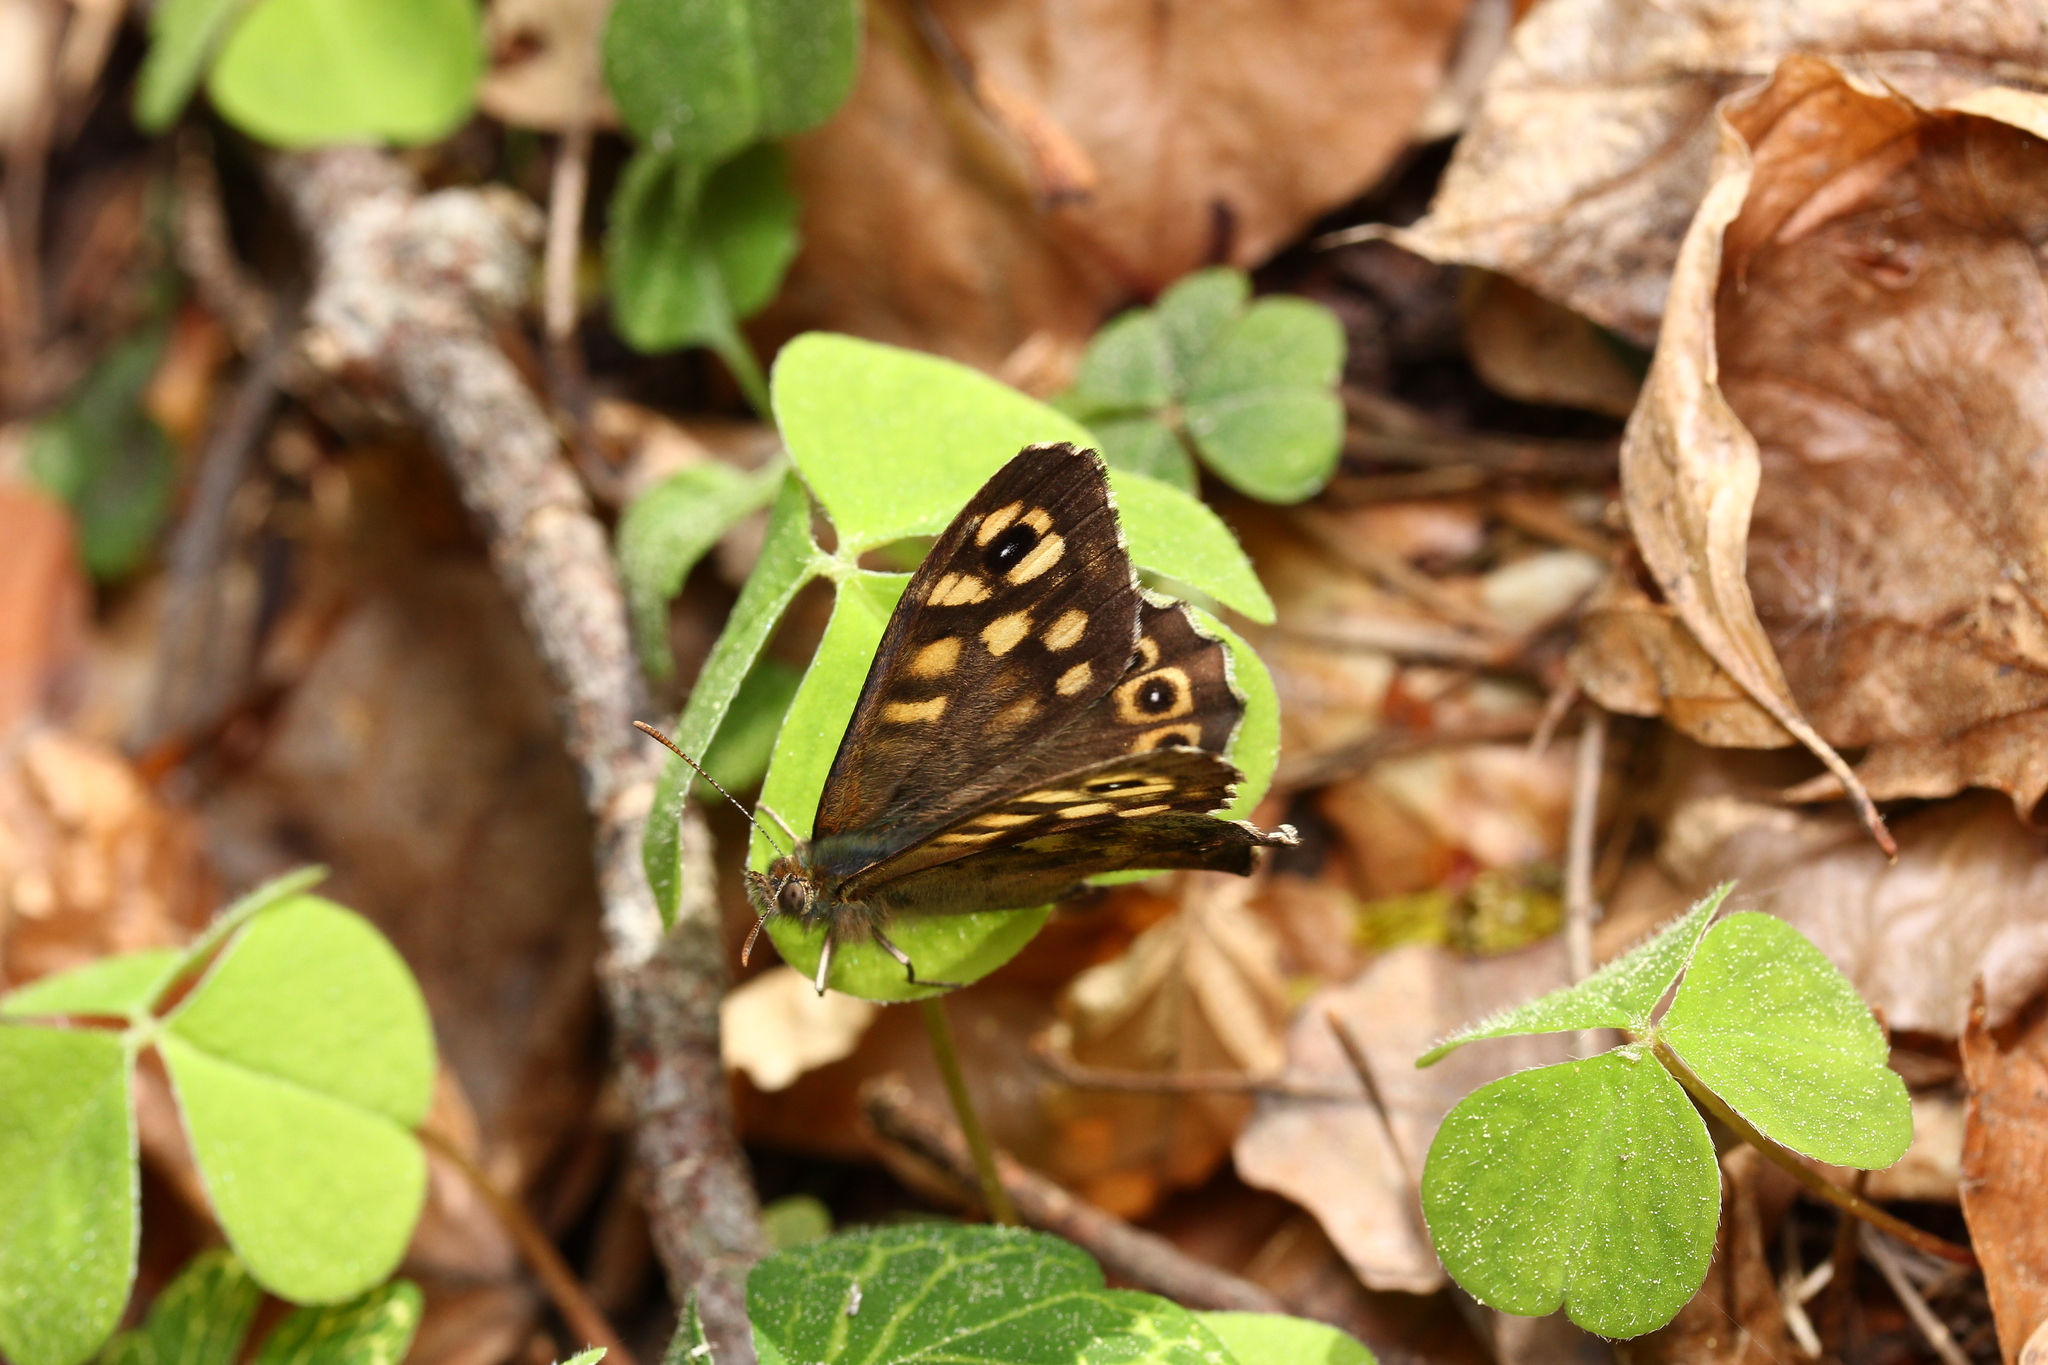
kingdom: Animalia
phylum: Arthropoda
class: Insecta
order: Lepidoptera
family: Nymphalidae
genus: Pararge
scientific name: Pararge aegeria
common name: Speckled wood
